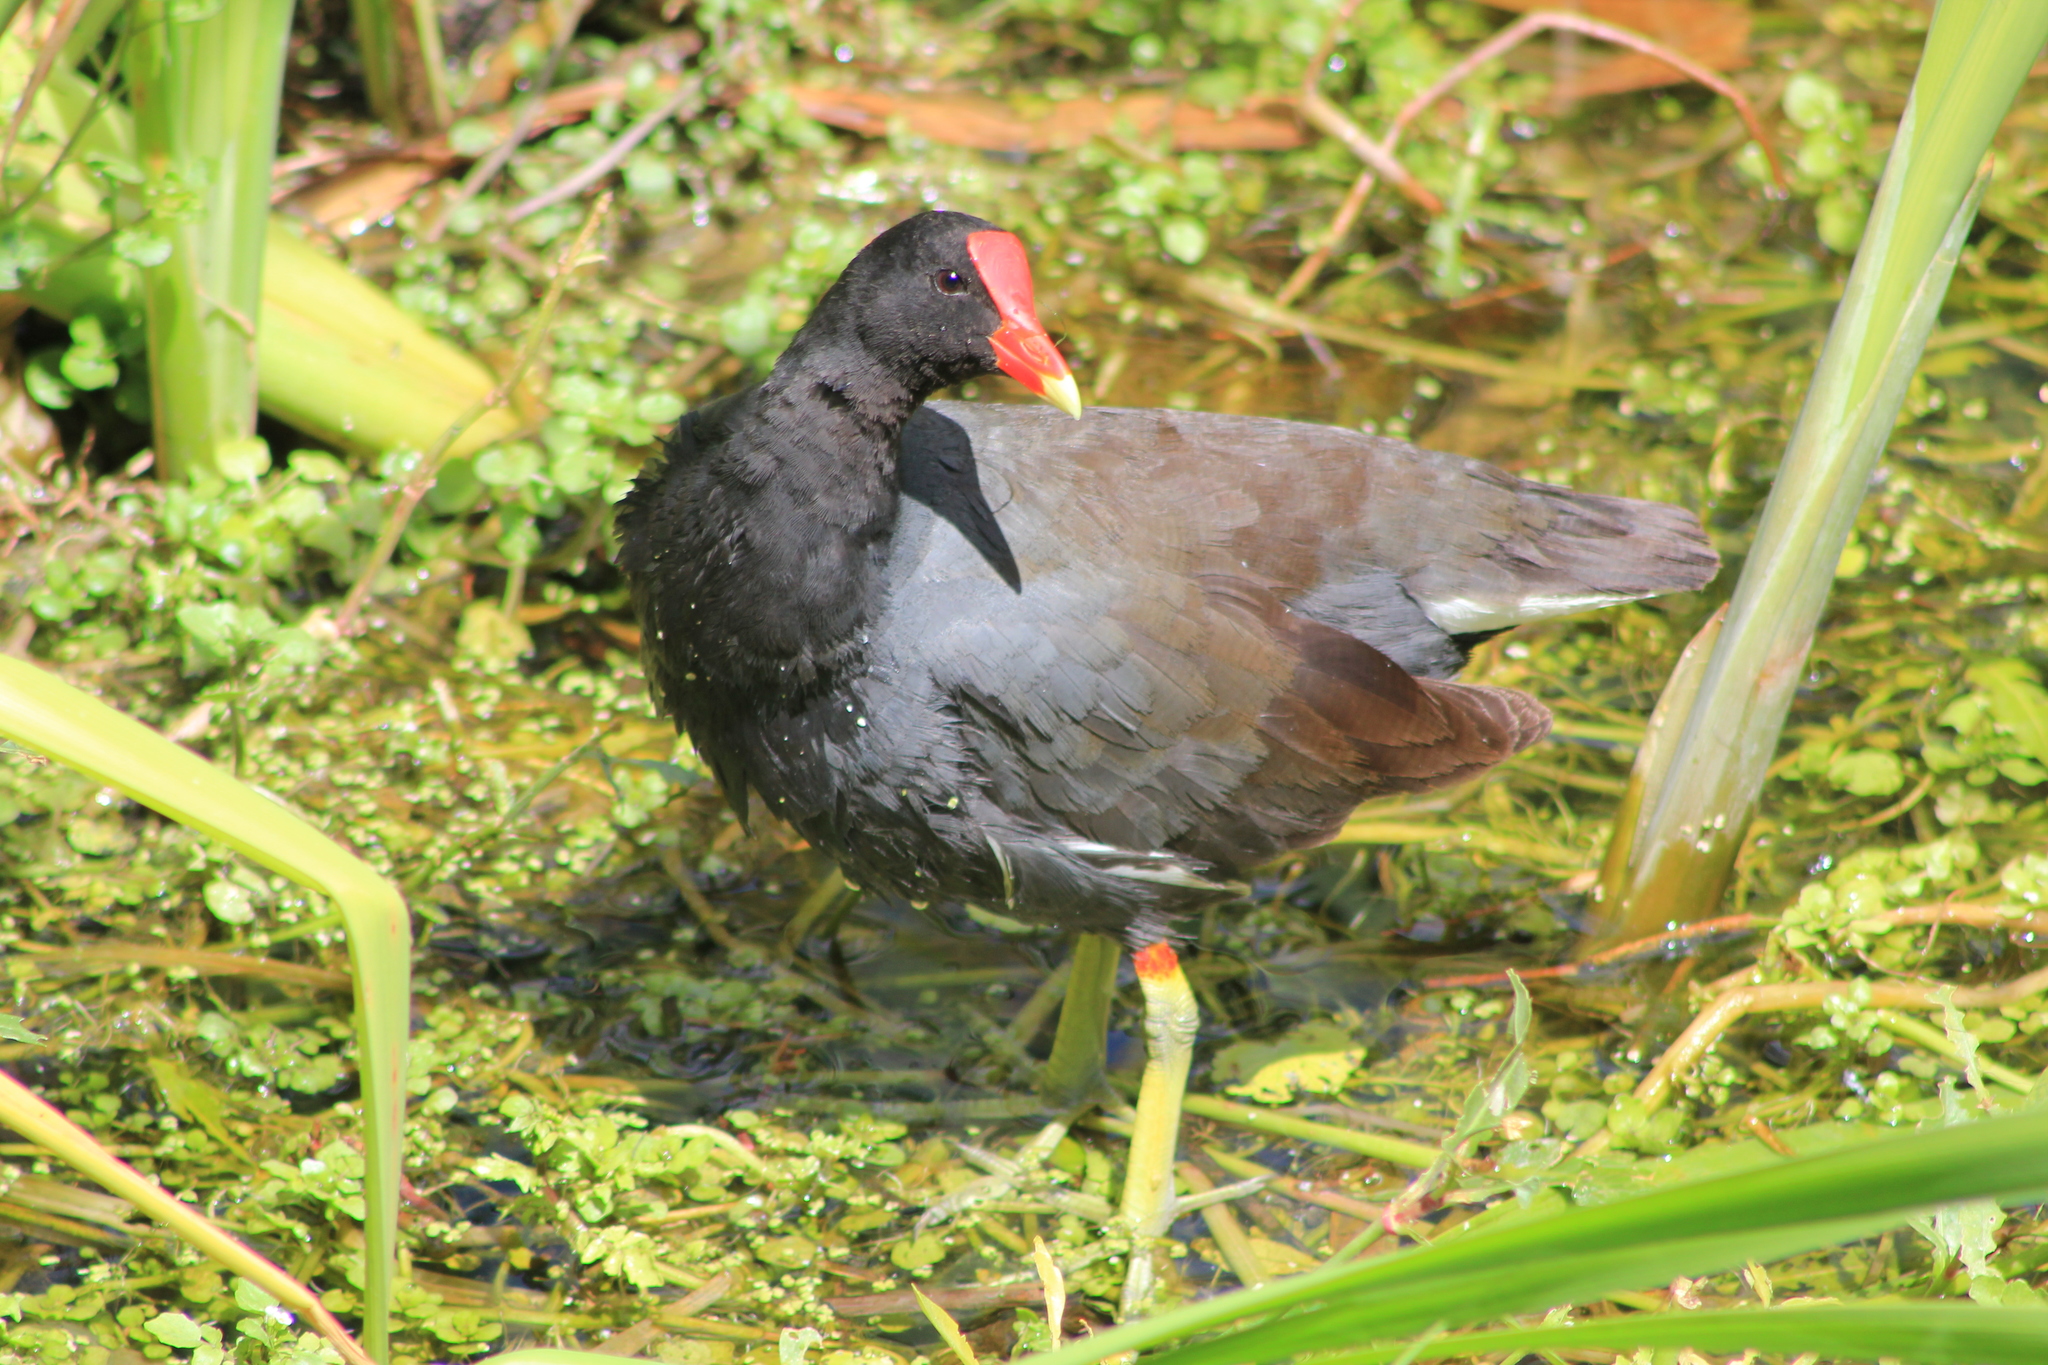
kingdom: Animalia
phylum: Chordata
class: Aves
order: Gruiformes
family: Rallidae
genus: Gallinula
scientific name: Gallinula chloropus
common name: Common moorhen
